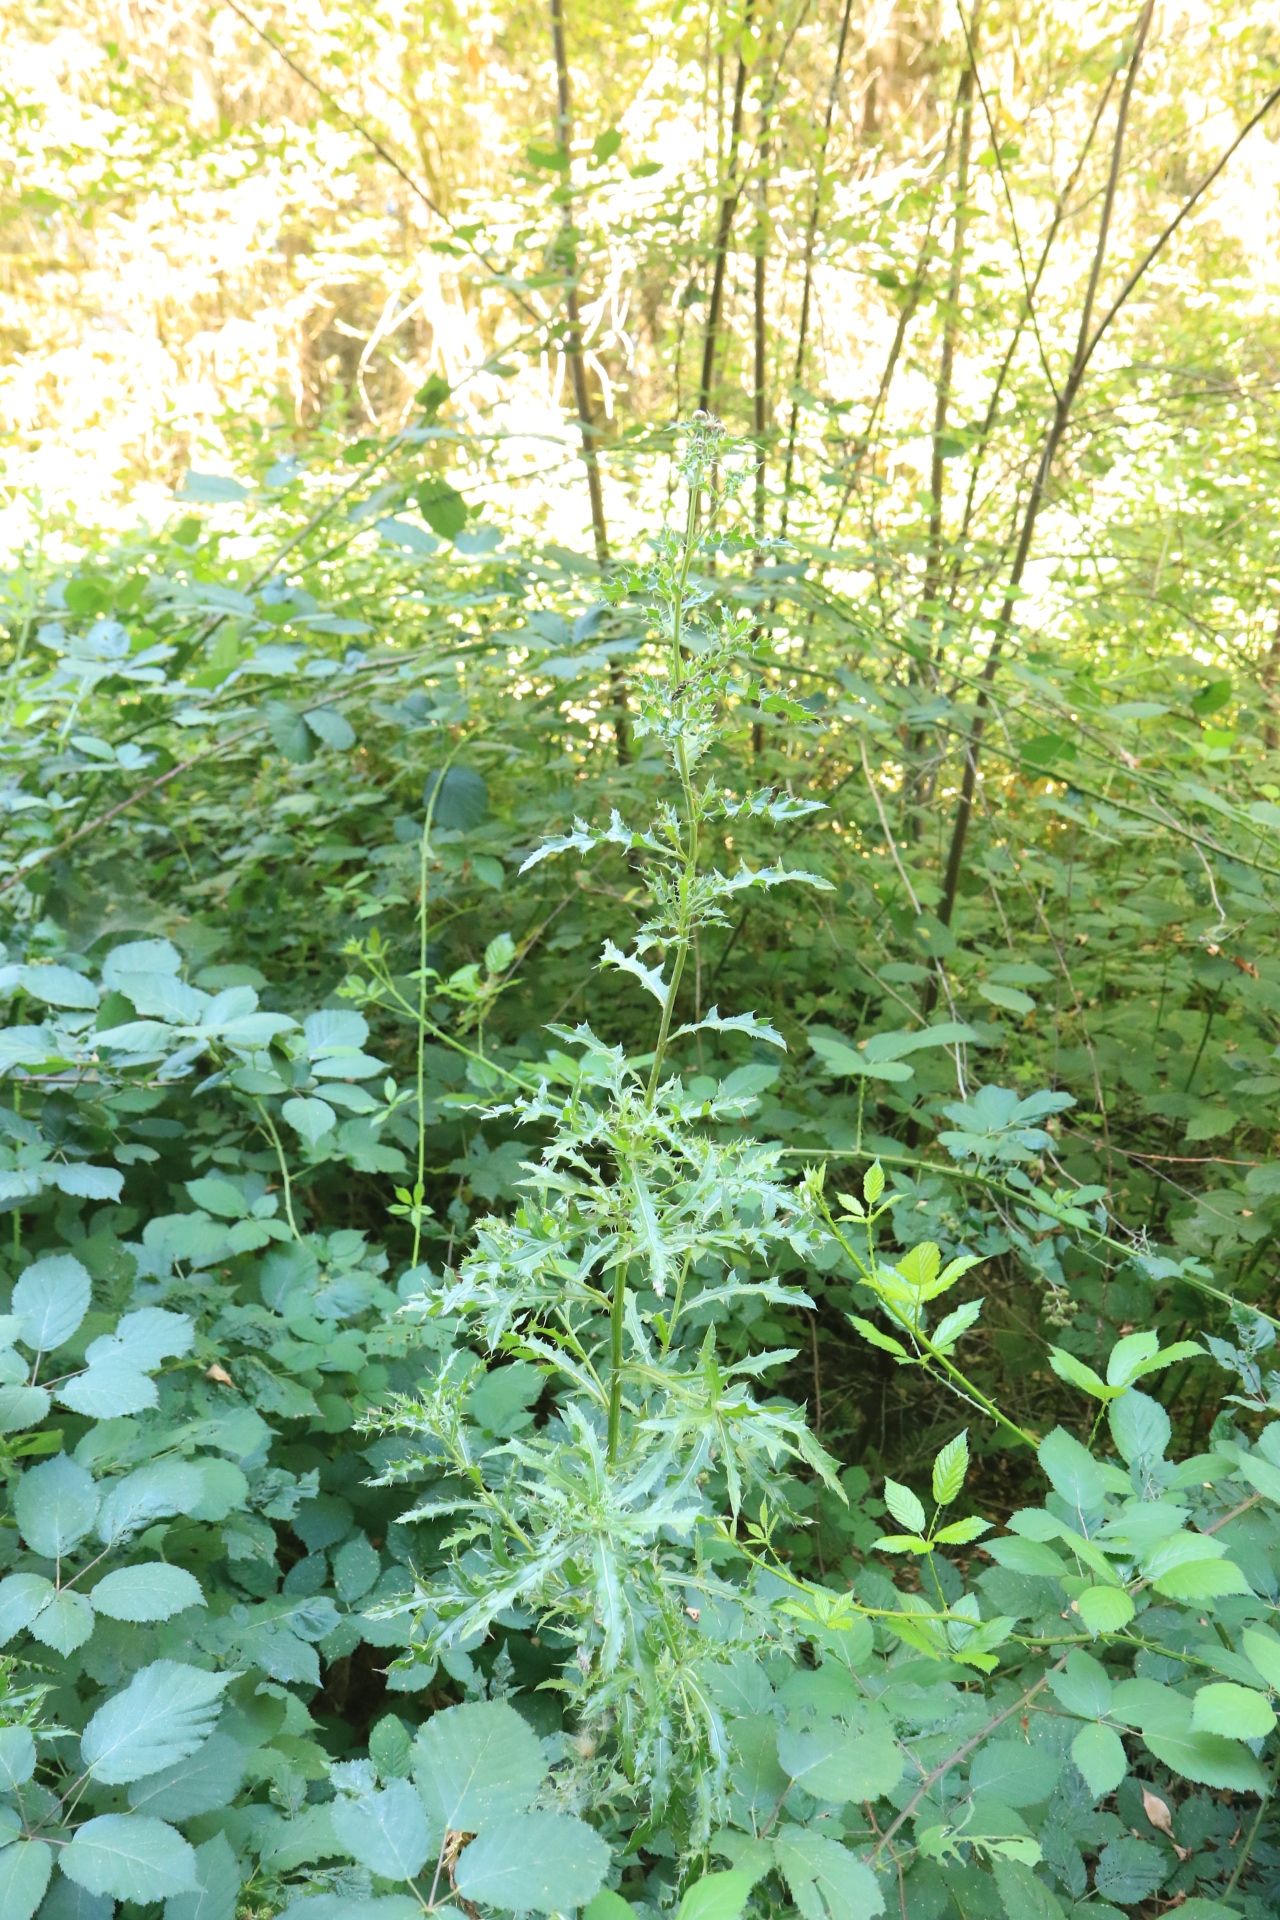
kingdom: Plantae
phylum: Tracheophyta
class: Magnoliopsida
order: Asterales
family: Asteraceae
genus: Cirsium
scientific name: Cirsium arvense
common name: Creeping thistle
